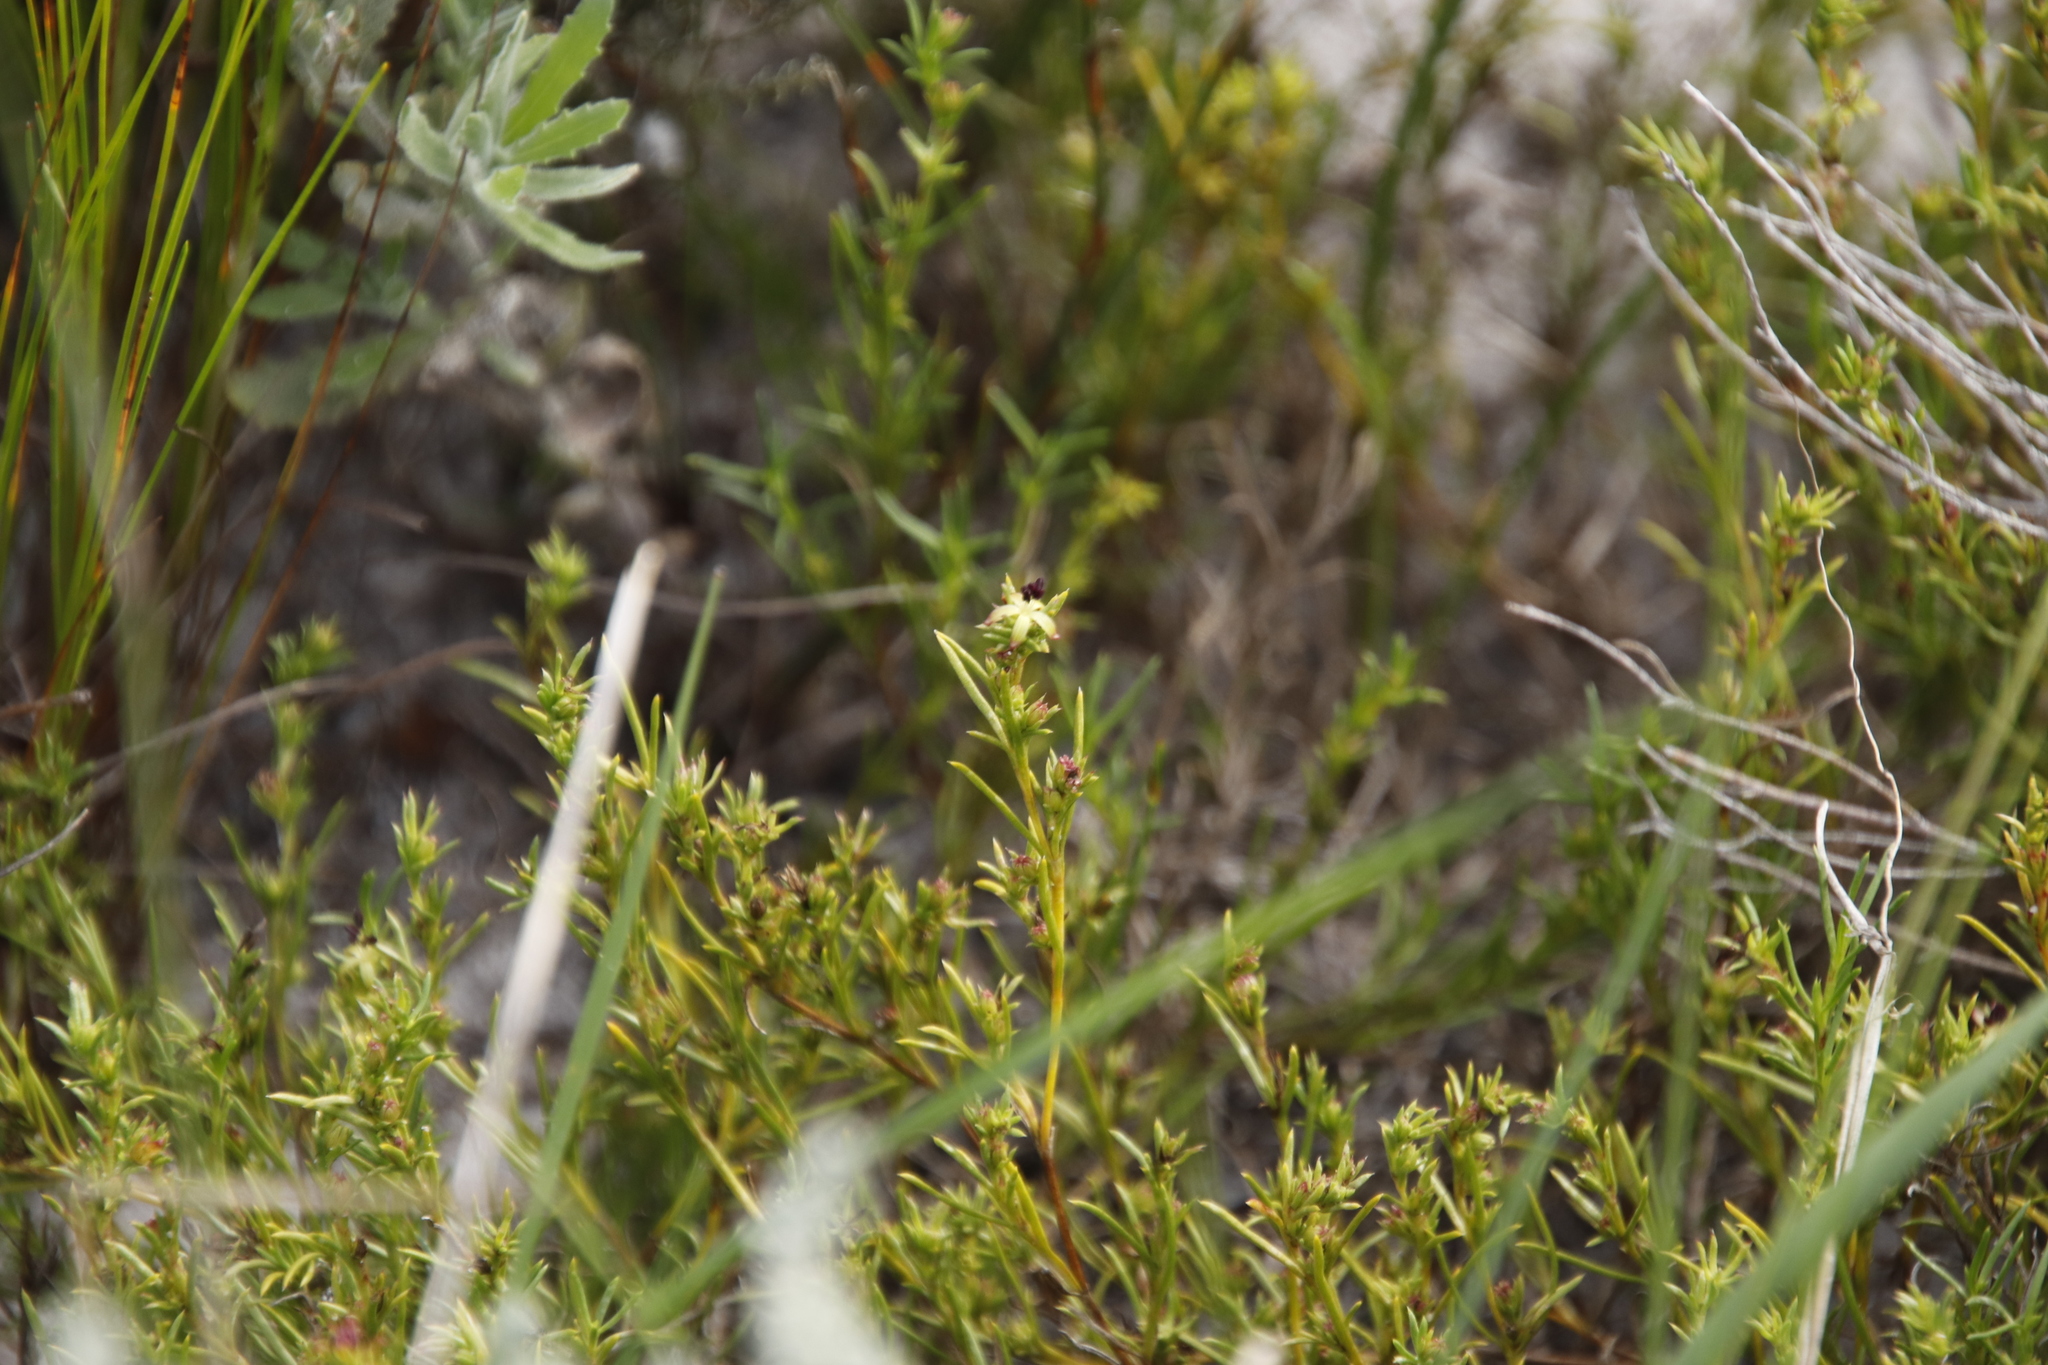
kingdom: Plantae
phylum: Tracheophyta
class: Magnoliopsida
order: Gentianales
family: Rubiaceae
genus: Carpacoce
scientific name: Carpacoce vaginellata
